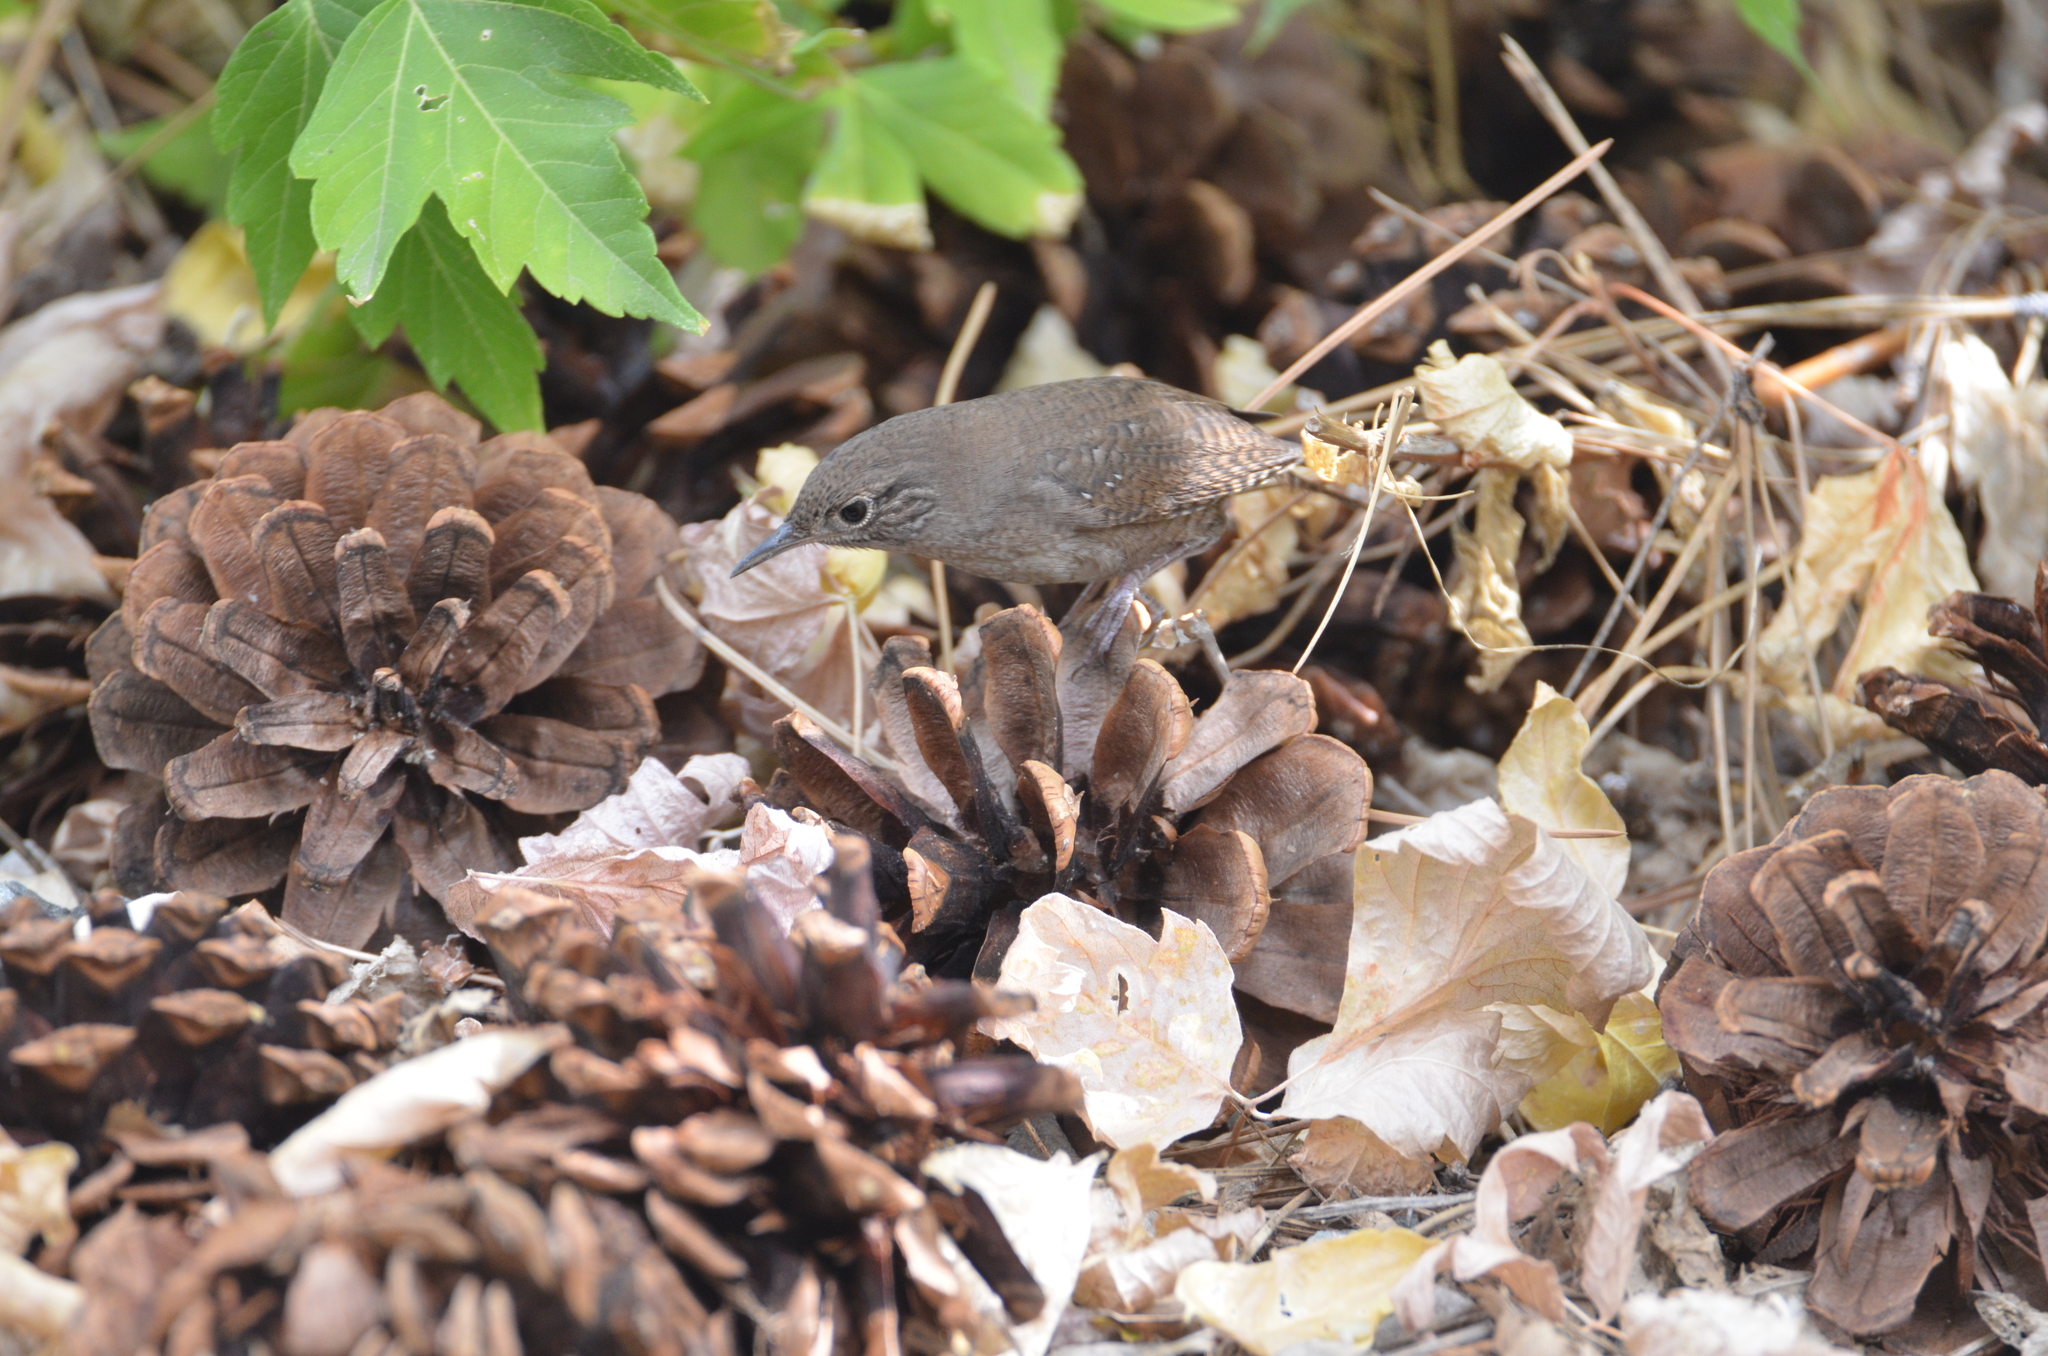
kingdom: Animalia
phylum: Chordata
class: Aves
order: Passeriformes
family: Troglodytidae
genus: Troglodytes
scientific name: Troglodytes aedon
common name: House wren
